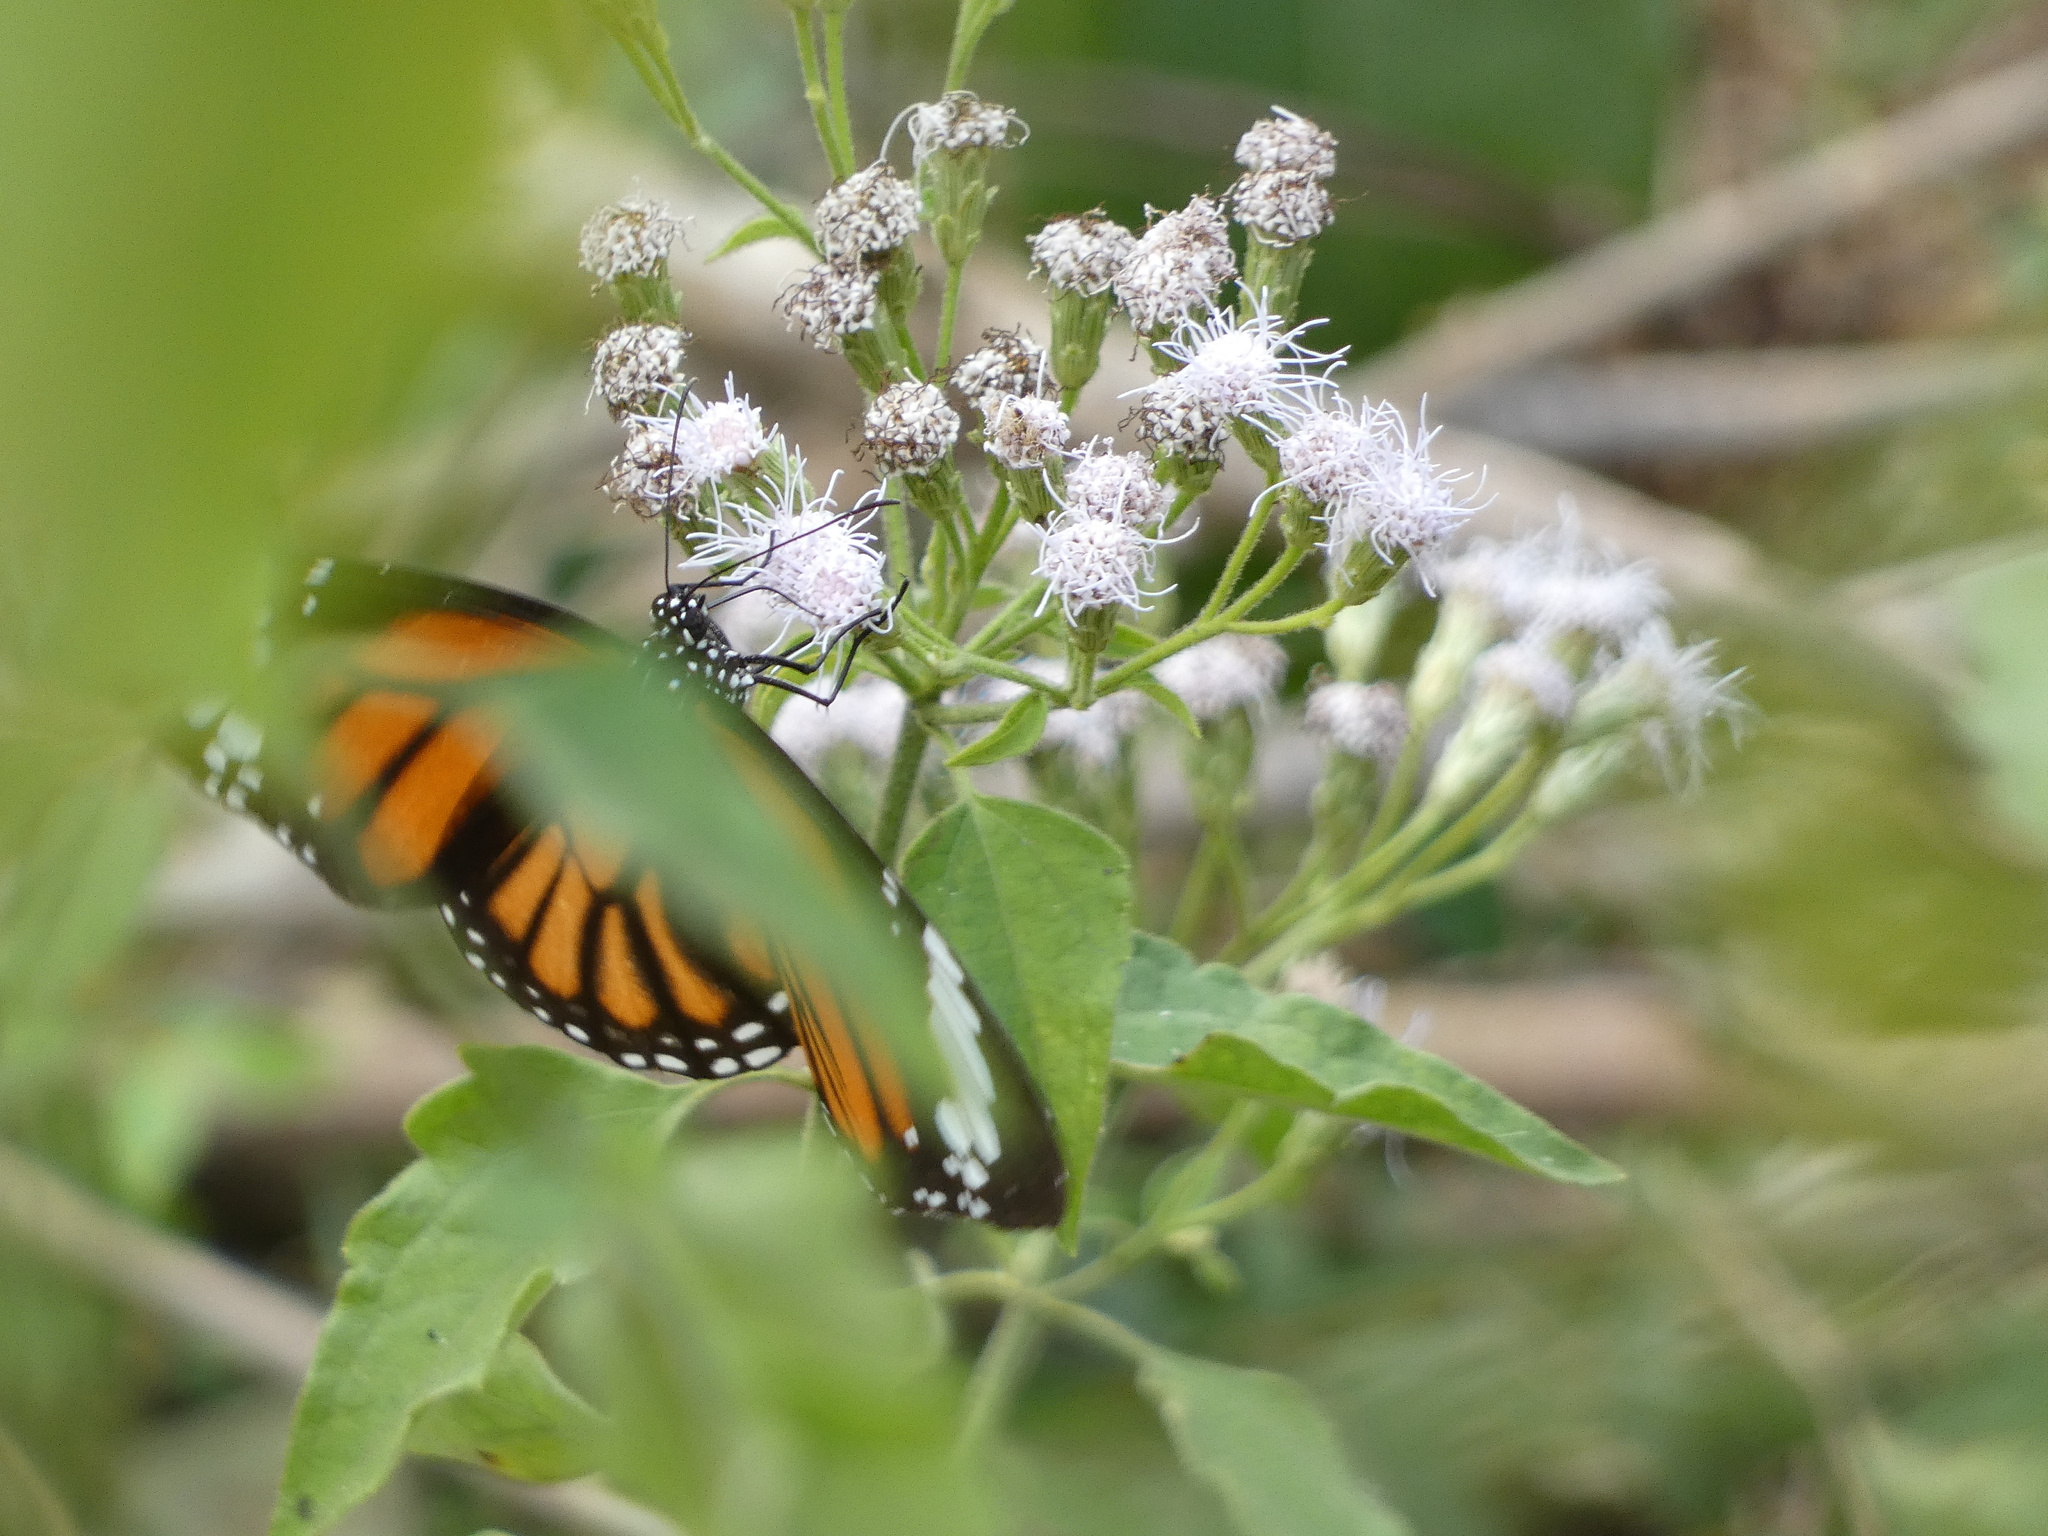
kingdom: Animalia
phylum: Arthropoda
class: Insecta
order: Lepidoptera
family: Nymphalidae
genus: Danaus
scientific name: Danaus genutia
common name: Common tiger butterfly
